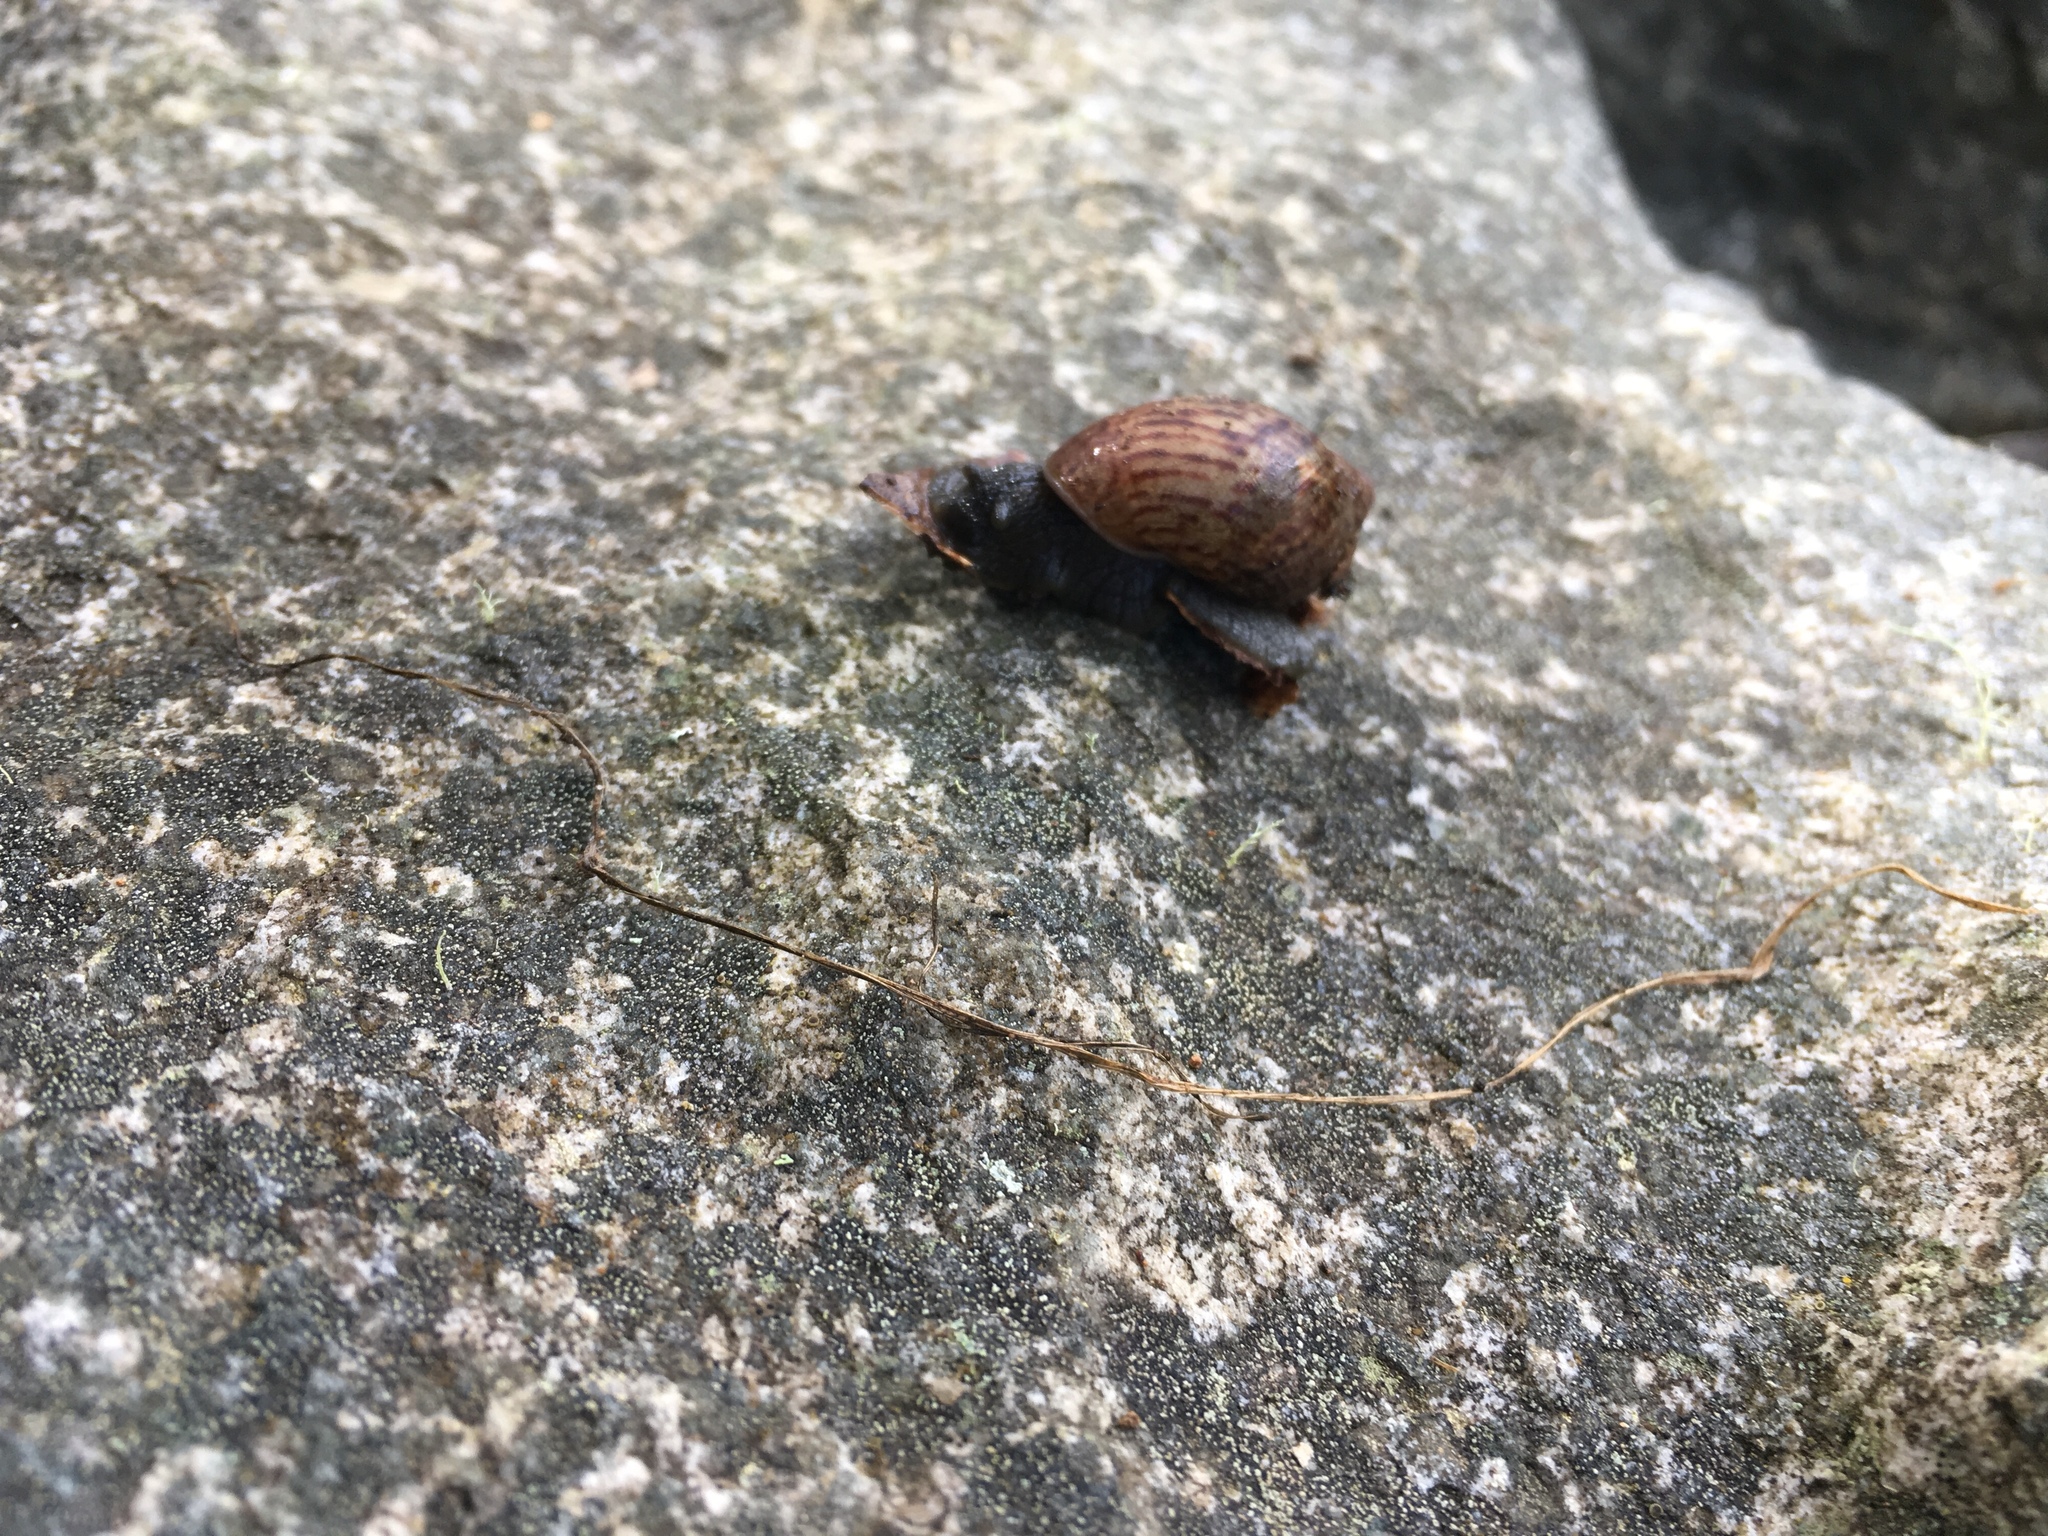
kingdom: Animalia
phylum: Mollusca
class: Gastropoda
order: Stylommatophora
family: Amphibulimidae
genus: Plekocheilus
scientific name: Plekocheilus
